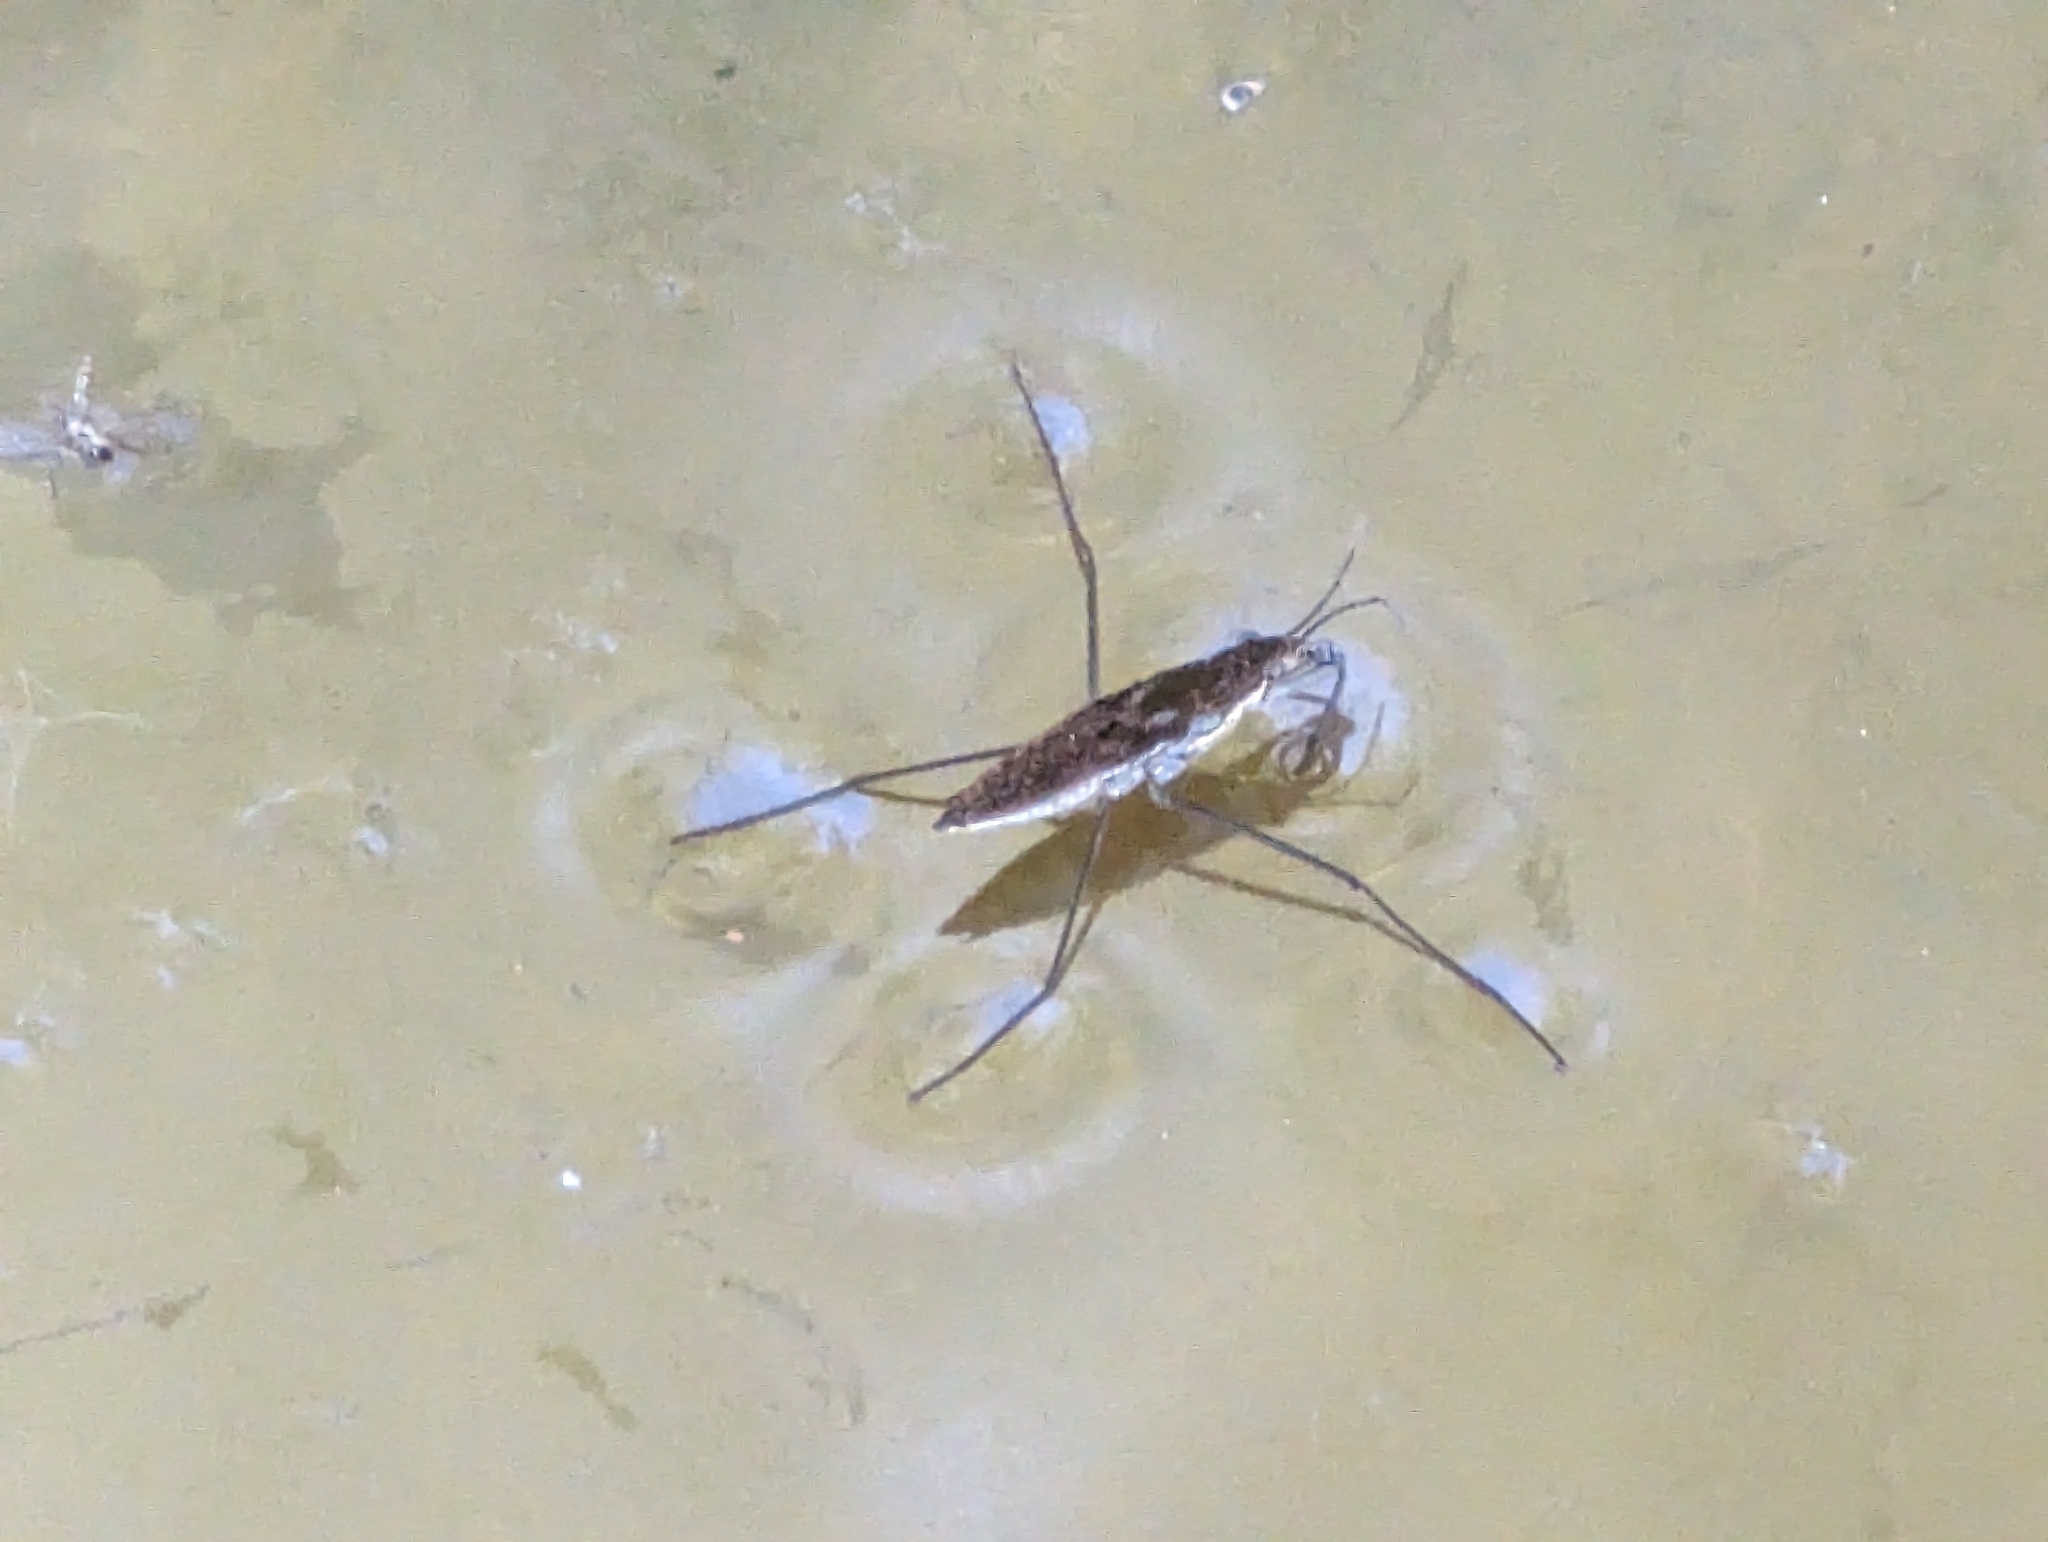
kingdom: Animalia
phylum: Arthropoda
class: Insecta
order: Hemiptera
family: Gerridae
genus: Aquarius
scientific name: Aquarius remigis
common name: Common water strider
